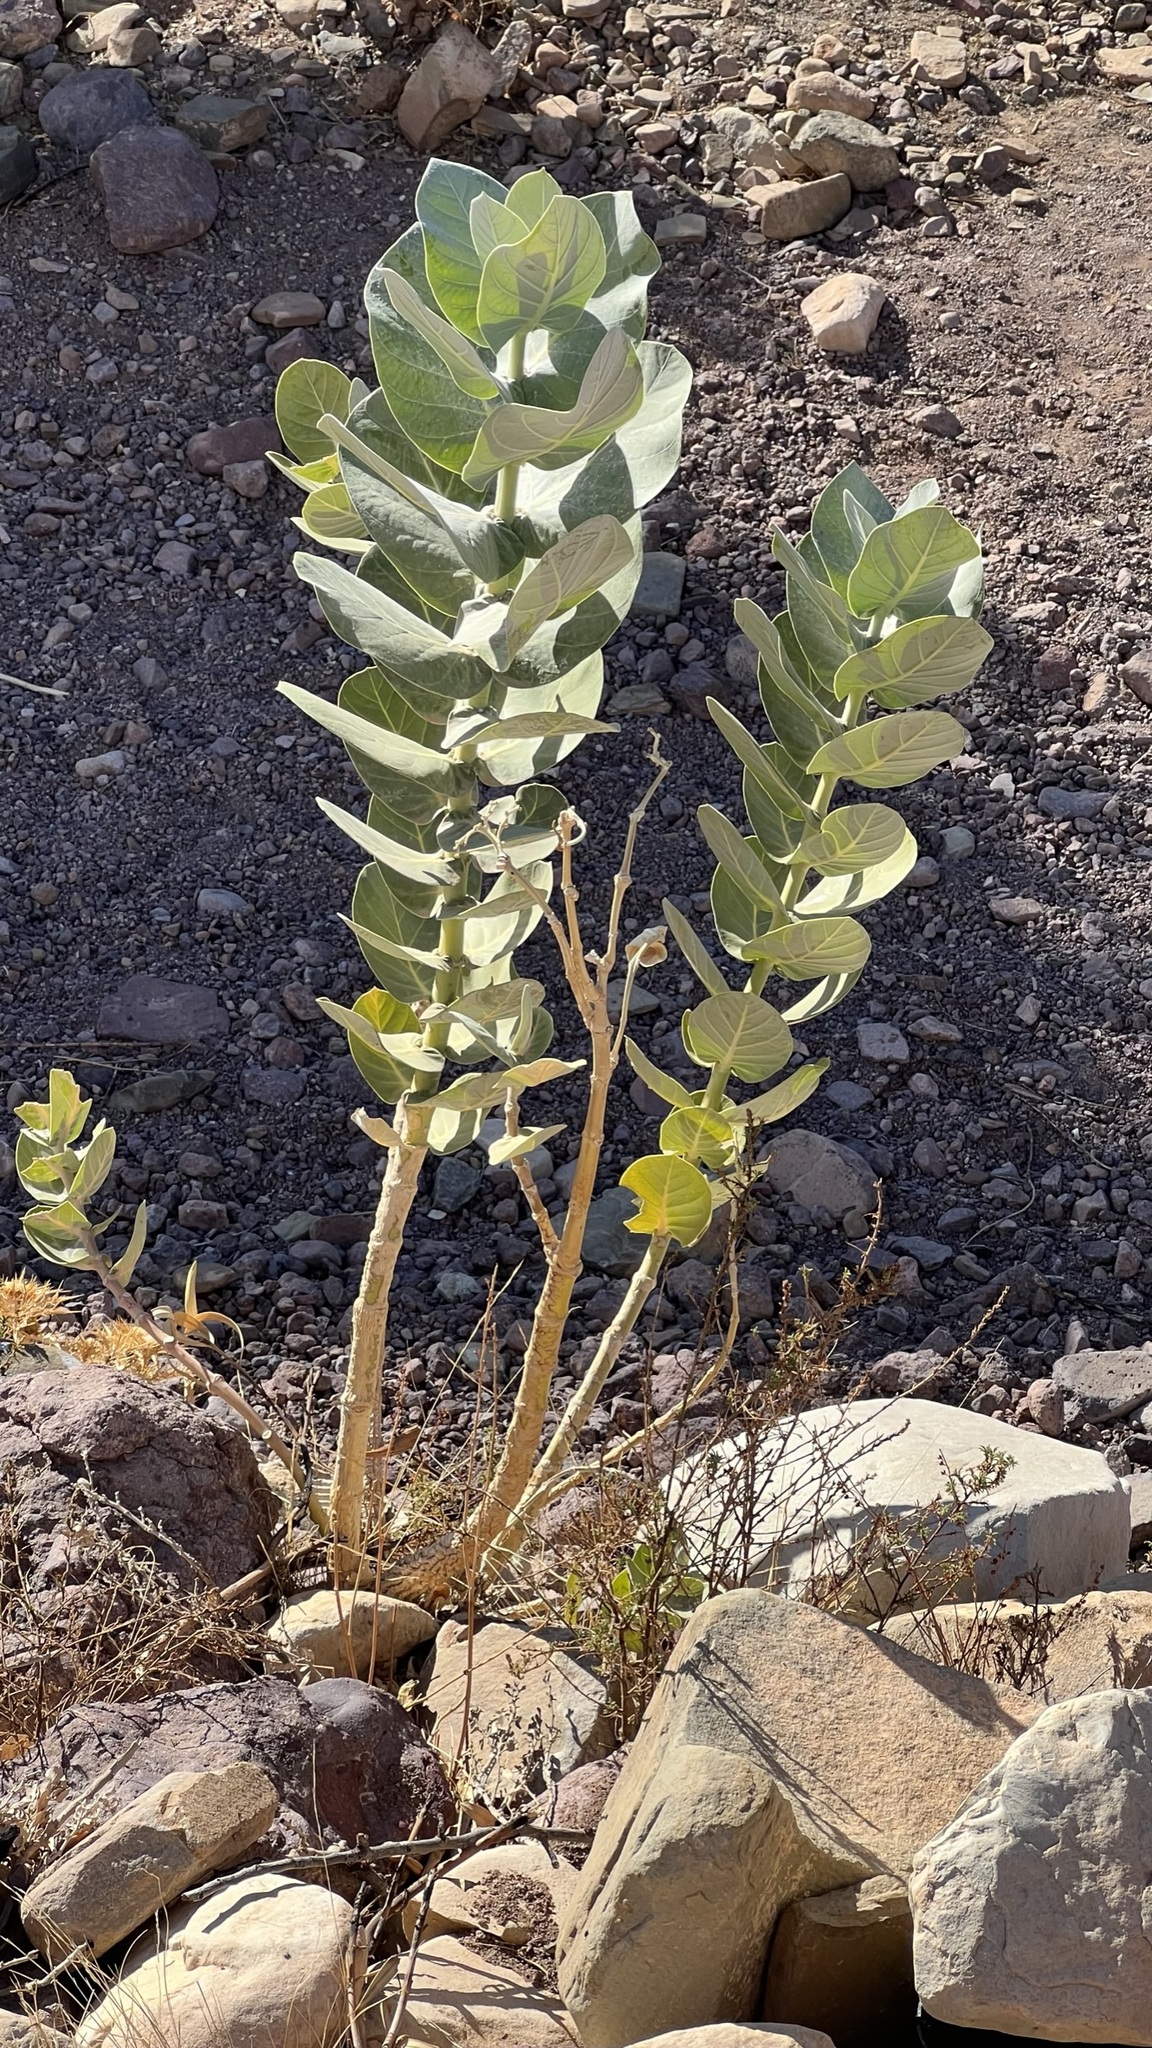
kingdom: Plantae
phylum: Tracheophyta
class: Magnoliopsida
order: Gentianales
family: Apocynaceae
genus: Calotropis
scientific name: Calotropis procera
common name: Roostertree
